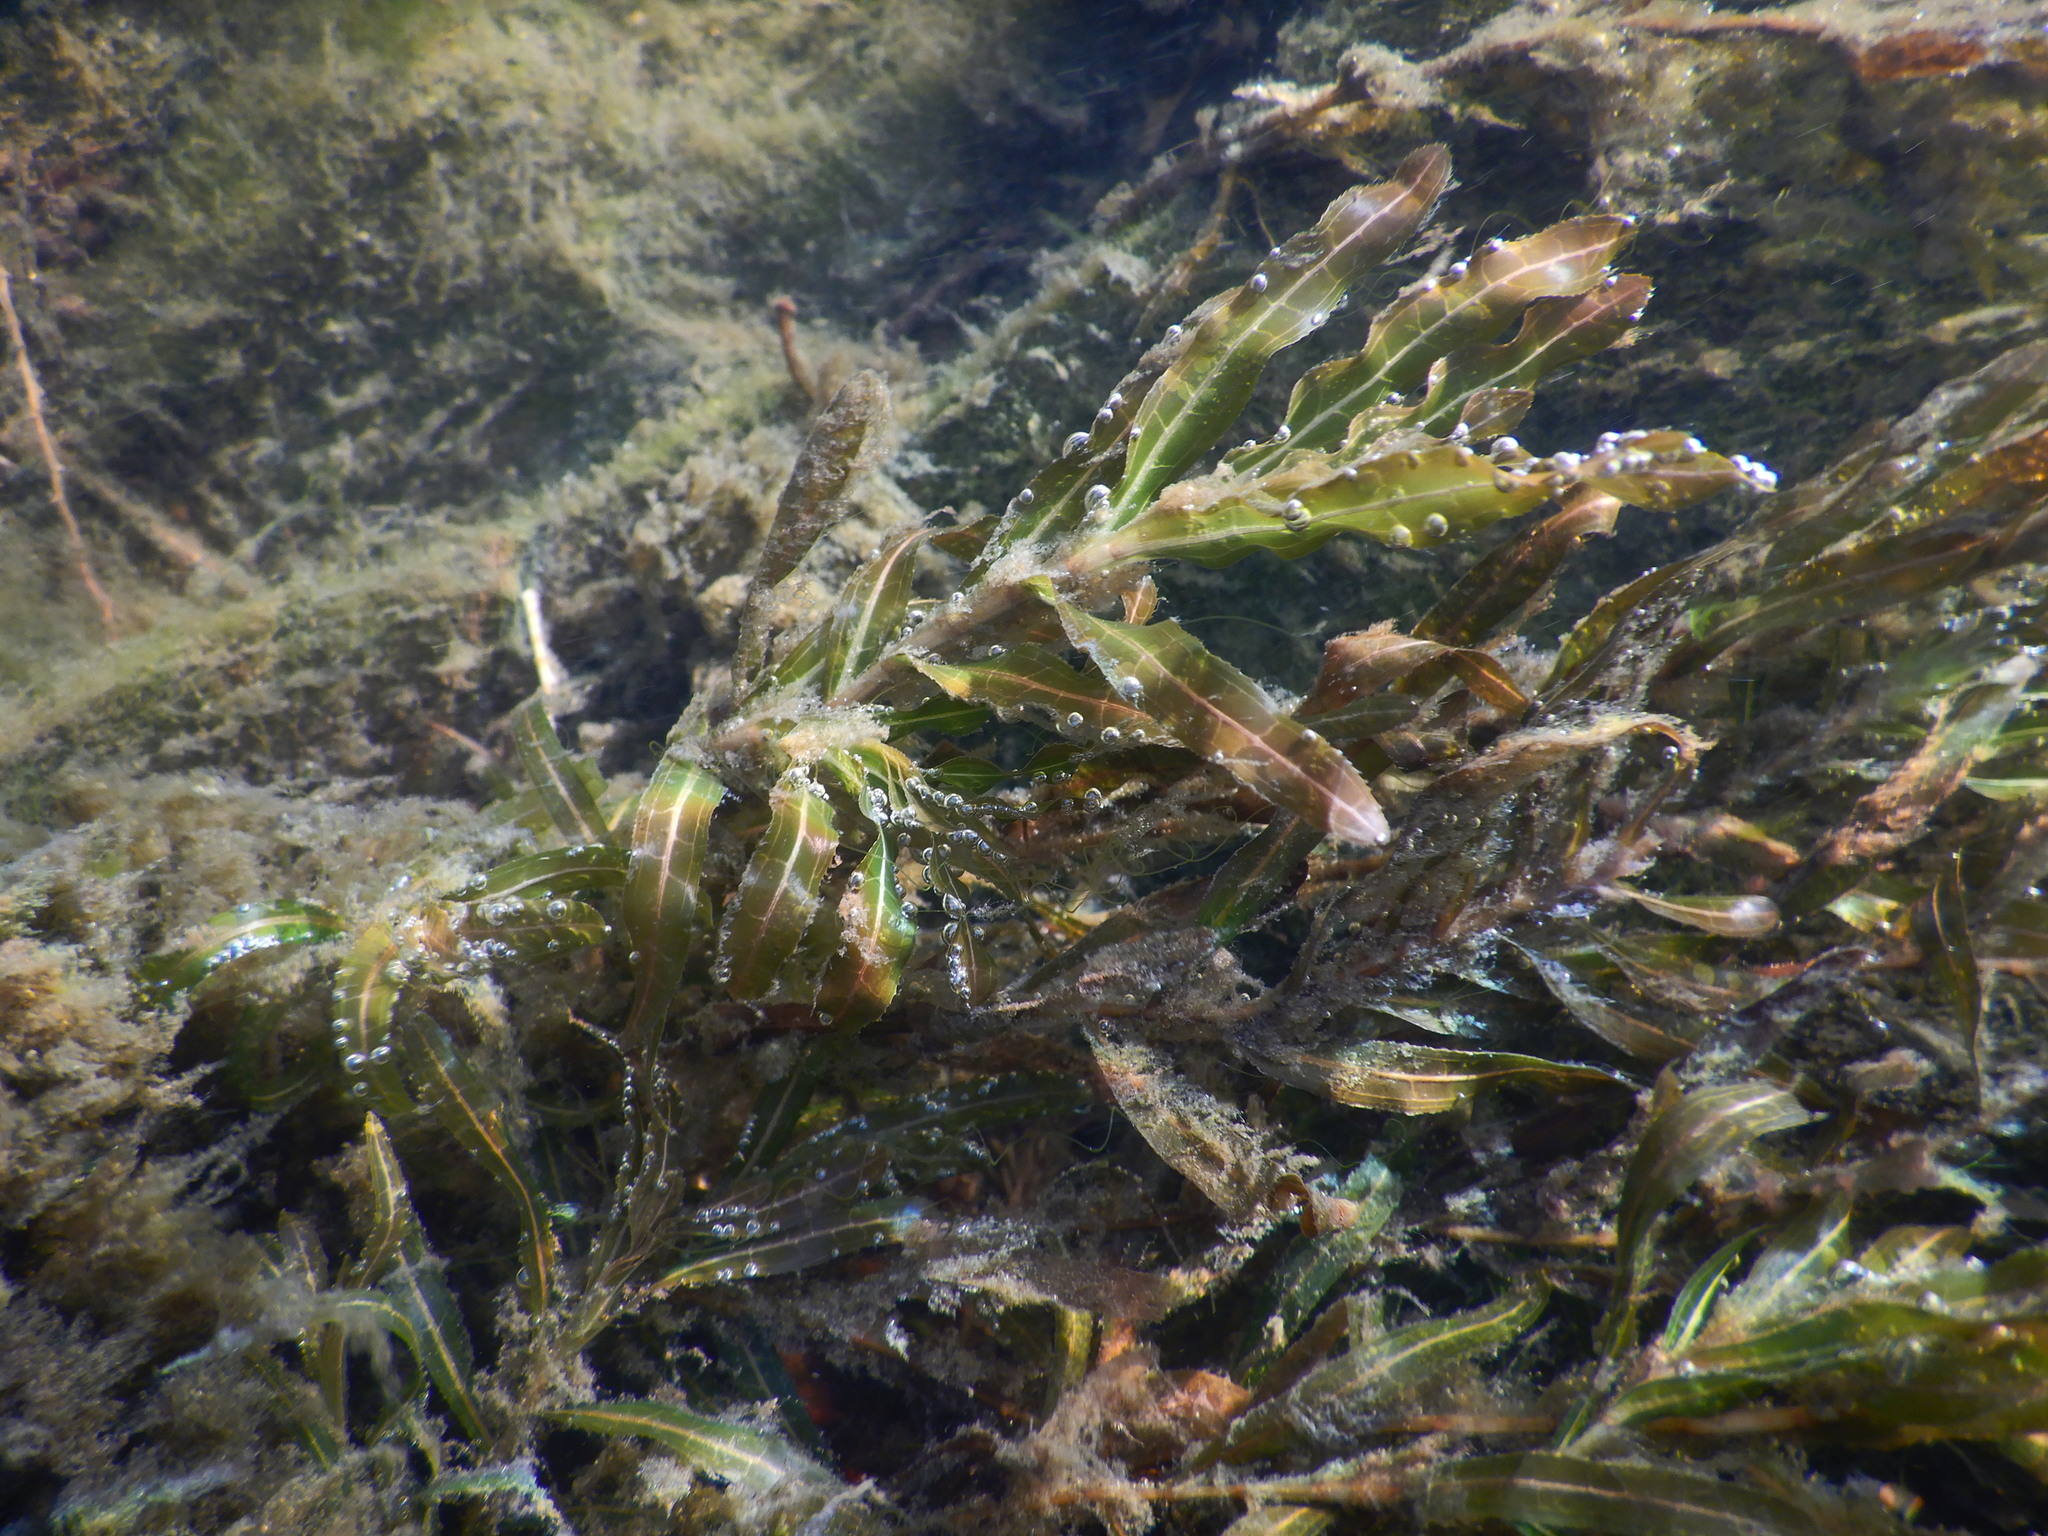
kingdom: Plantae
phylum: Tracheophyta
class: Liliopsida
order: Alismatales
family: Potamogetonaceae
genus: Potamogeton
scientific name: Potamogeton crispus
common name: Curled pondweed
